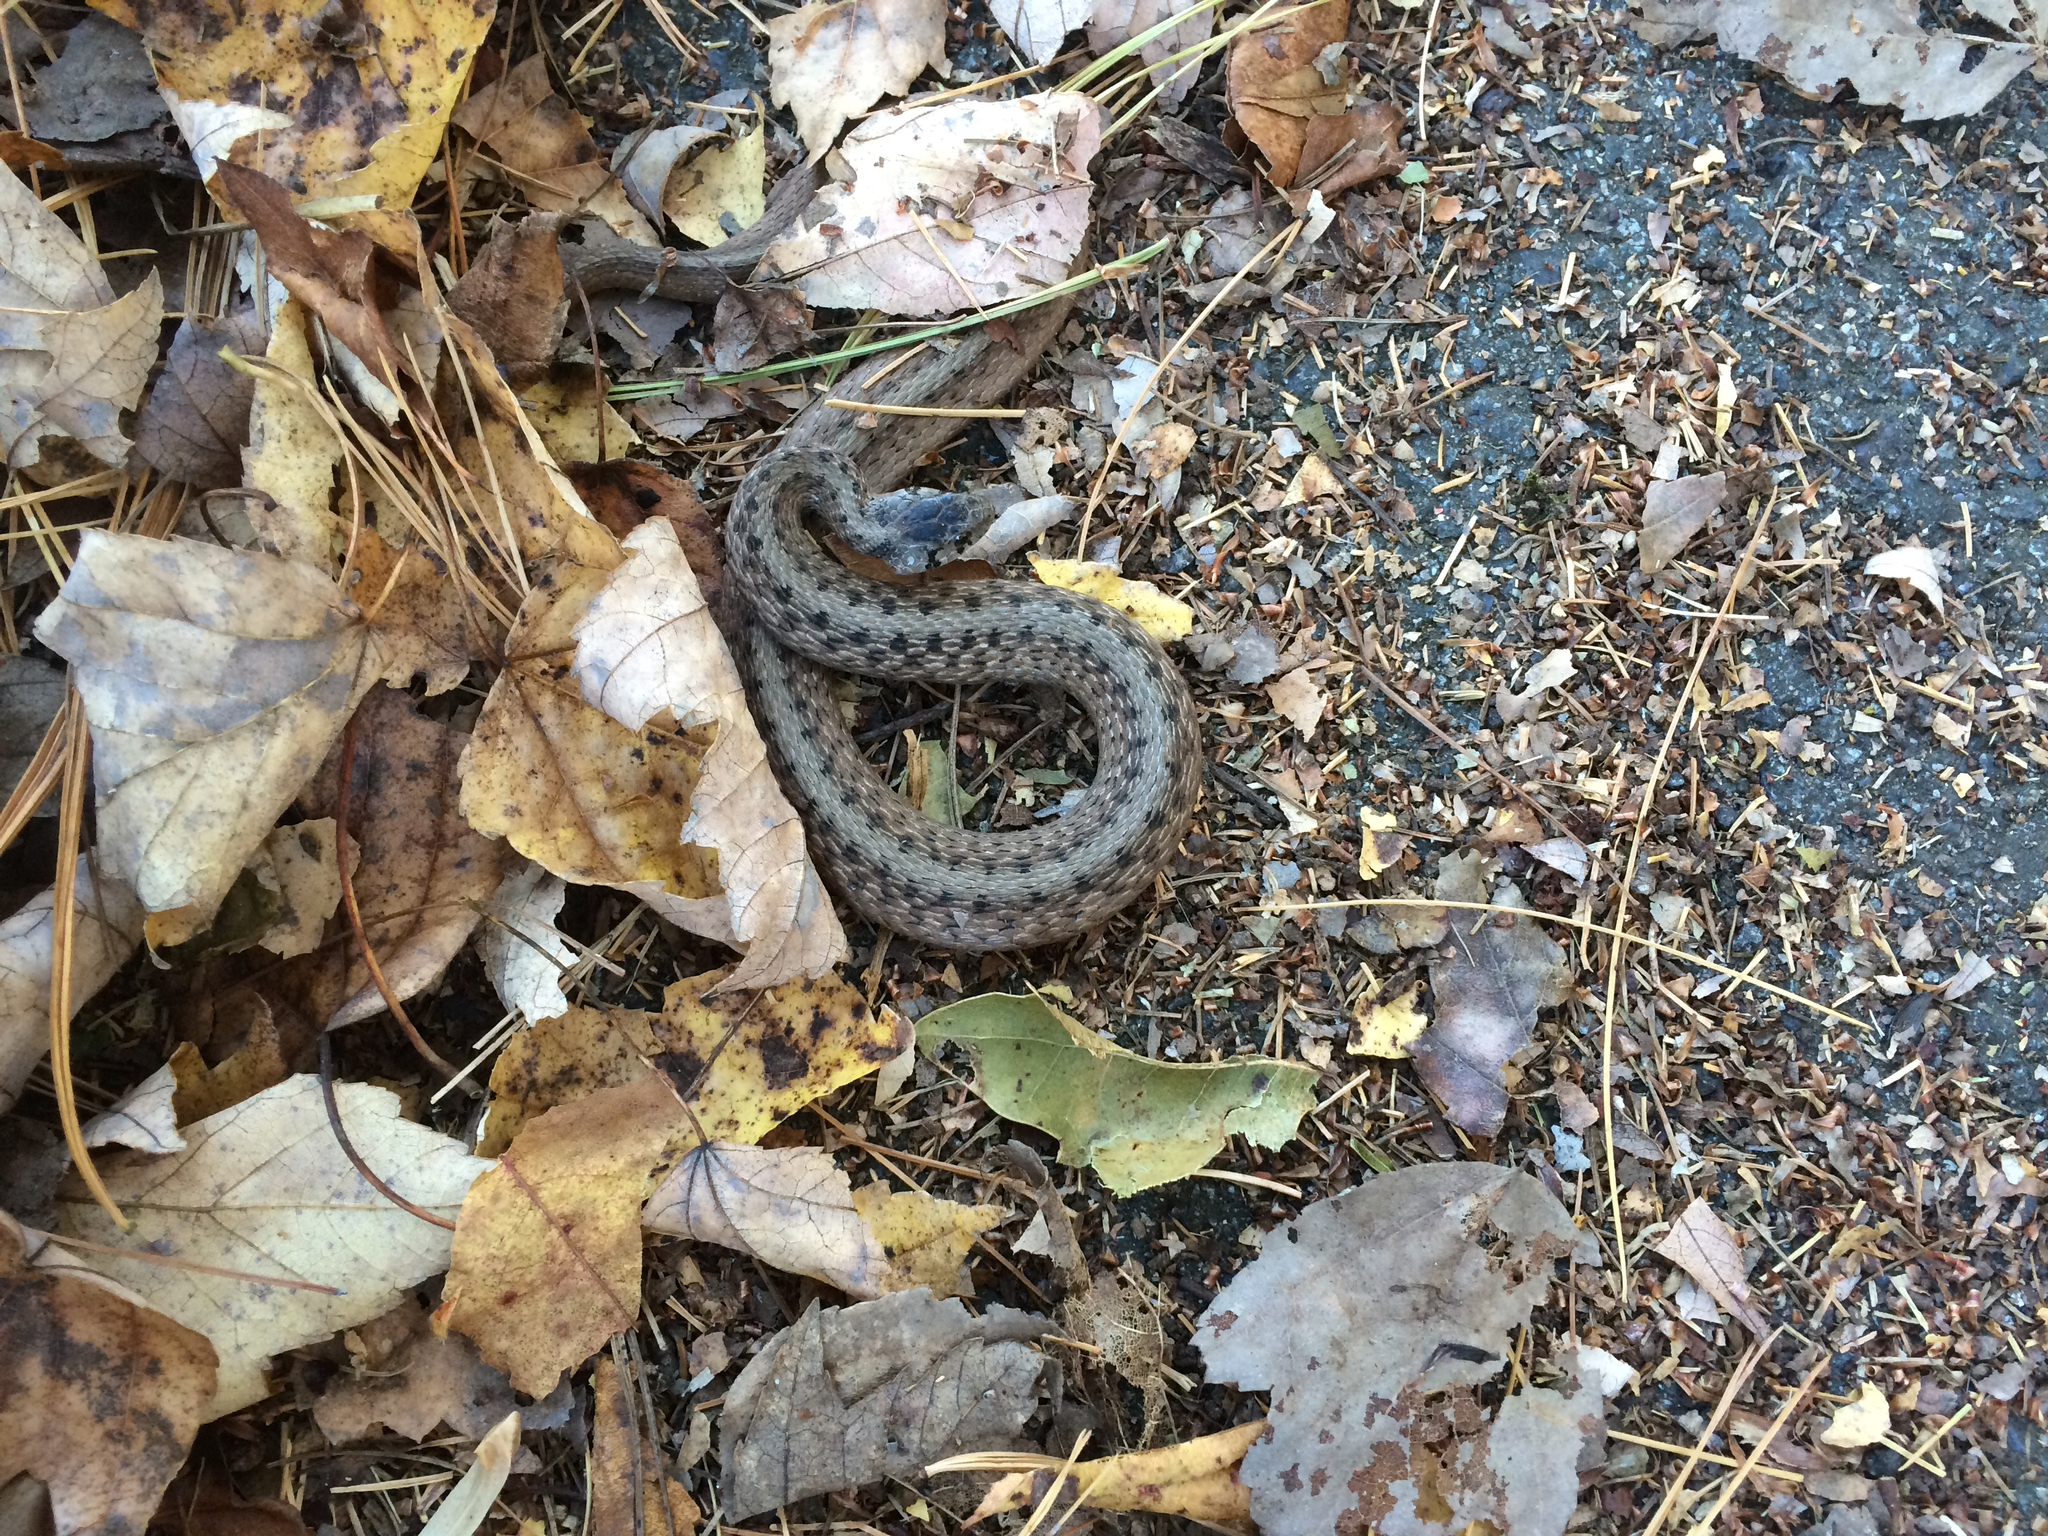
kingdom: Animalia
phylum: Chordata
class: Squamata
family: Colubridae
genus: Storeria
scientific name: Storeria dekayi
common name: (dekay’s) brown snake
